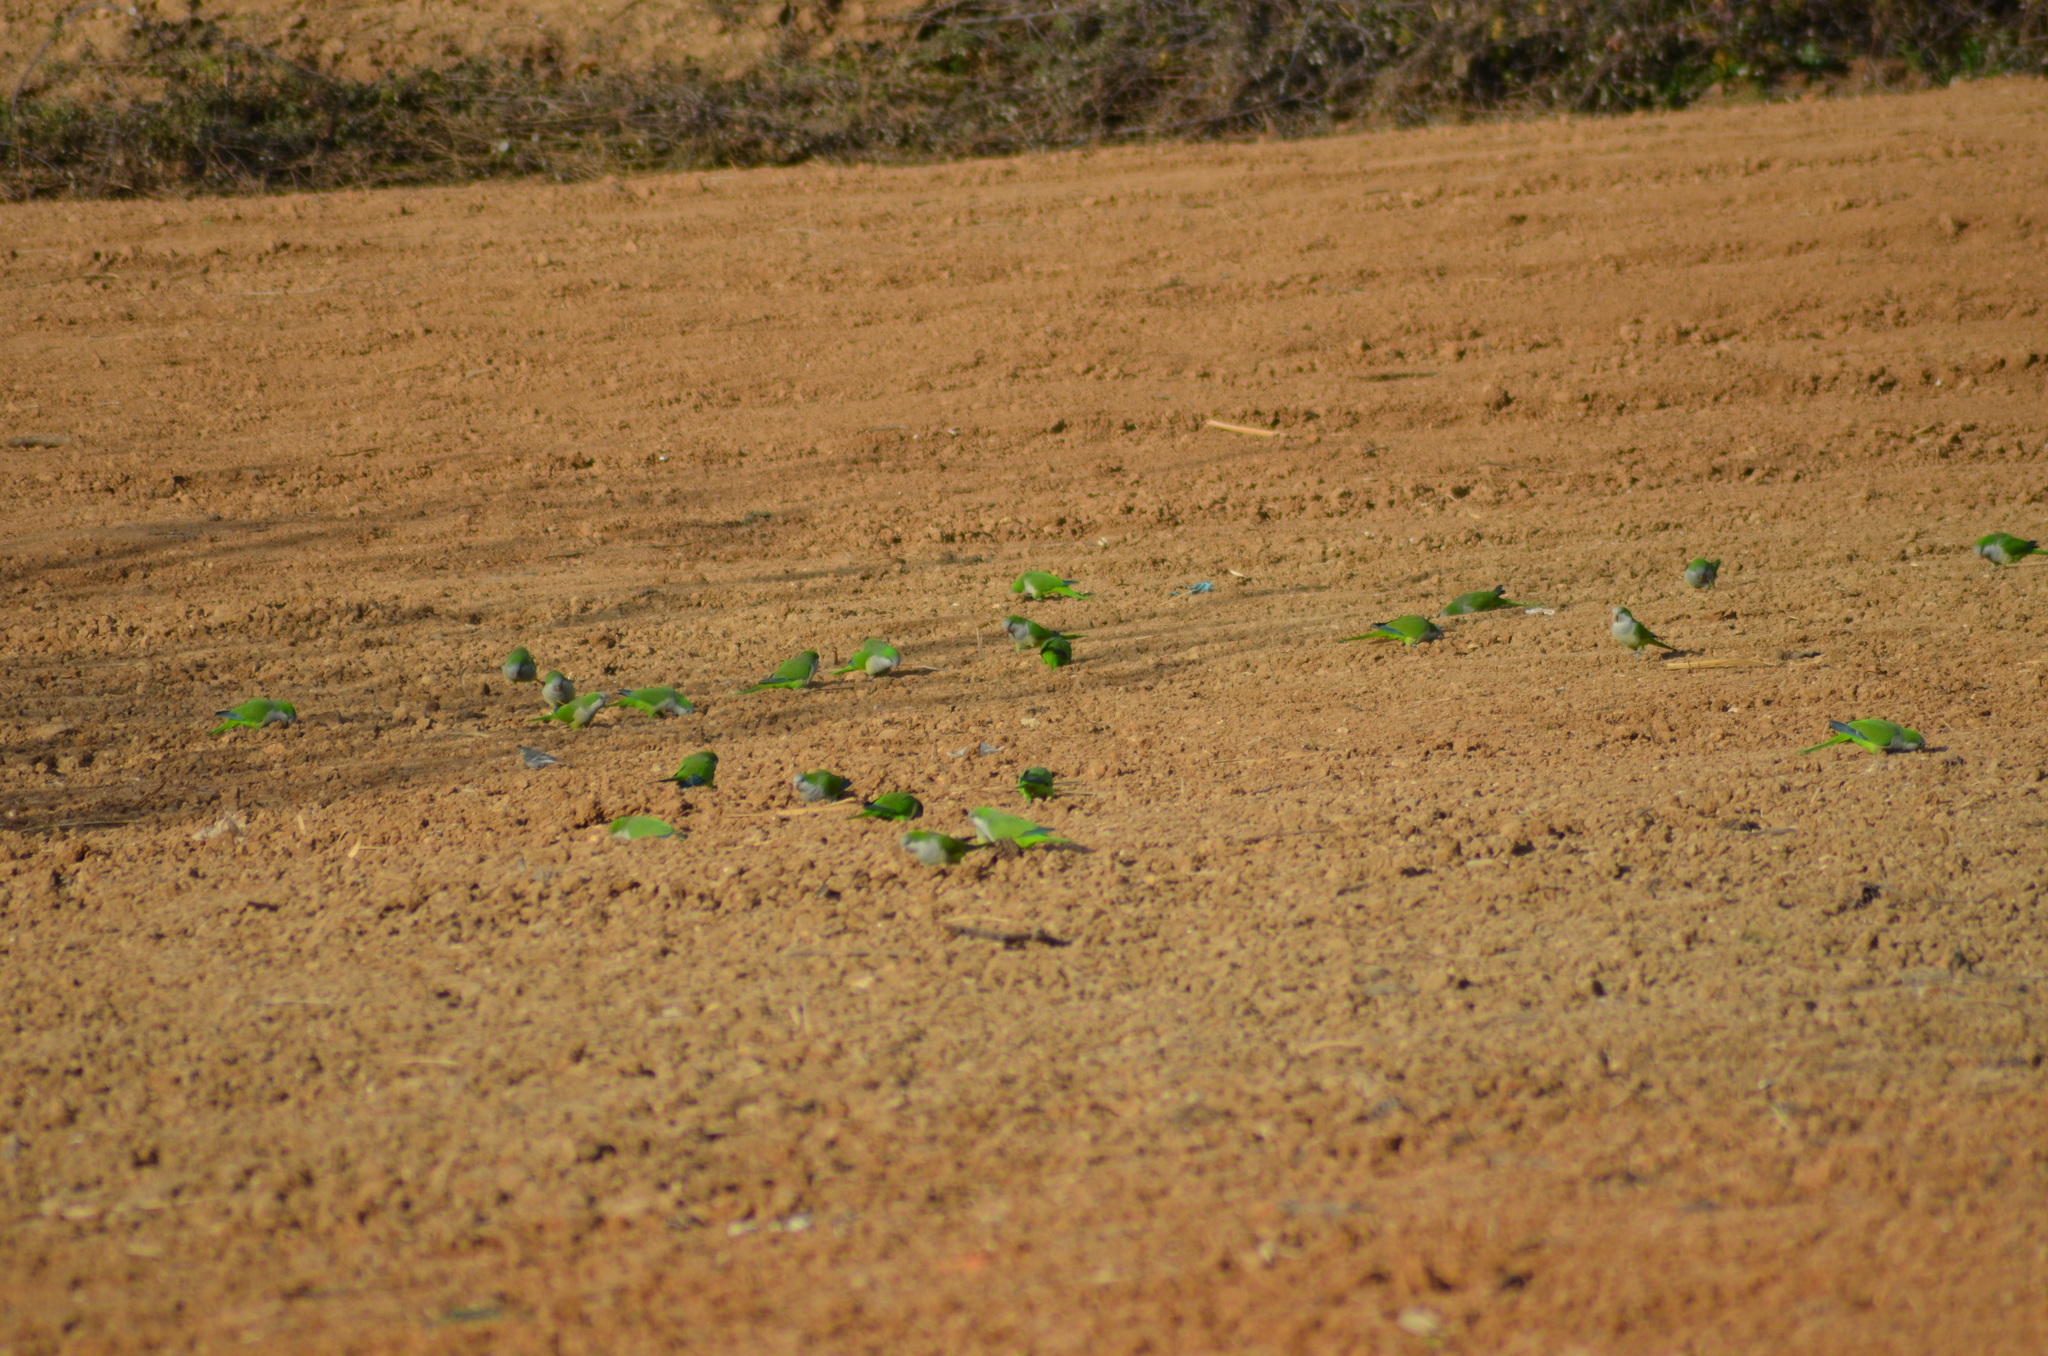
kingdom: Animalia
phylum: Chordata
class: Aves
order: Psittaciformes
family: Psittacidae
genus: Myiopsitta
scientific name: Myiopsitta monachus
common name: Monk parakeet
